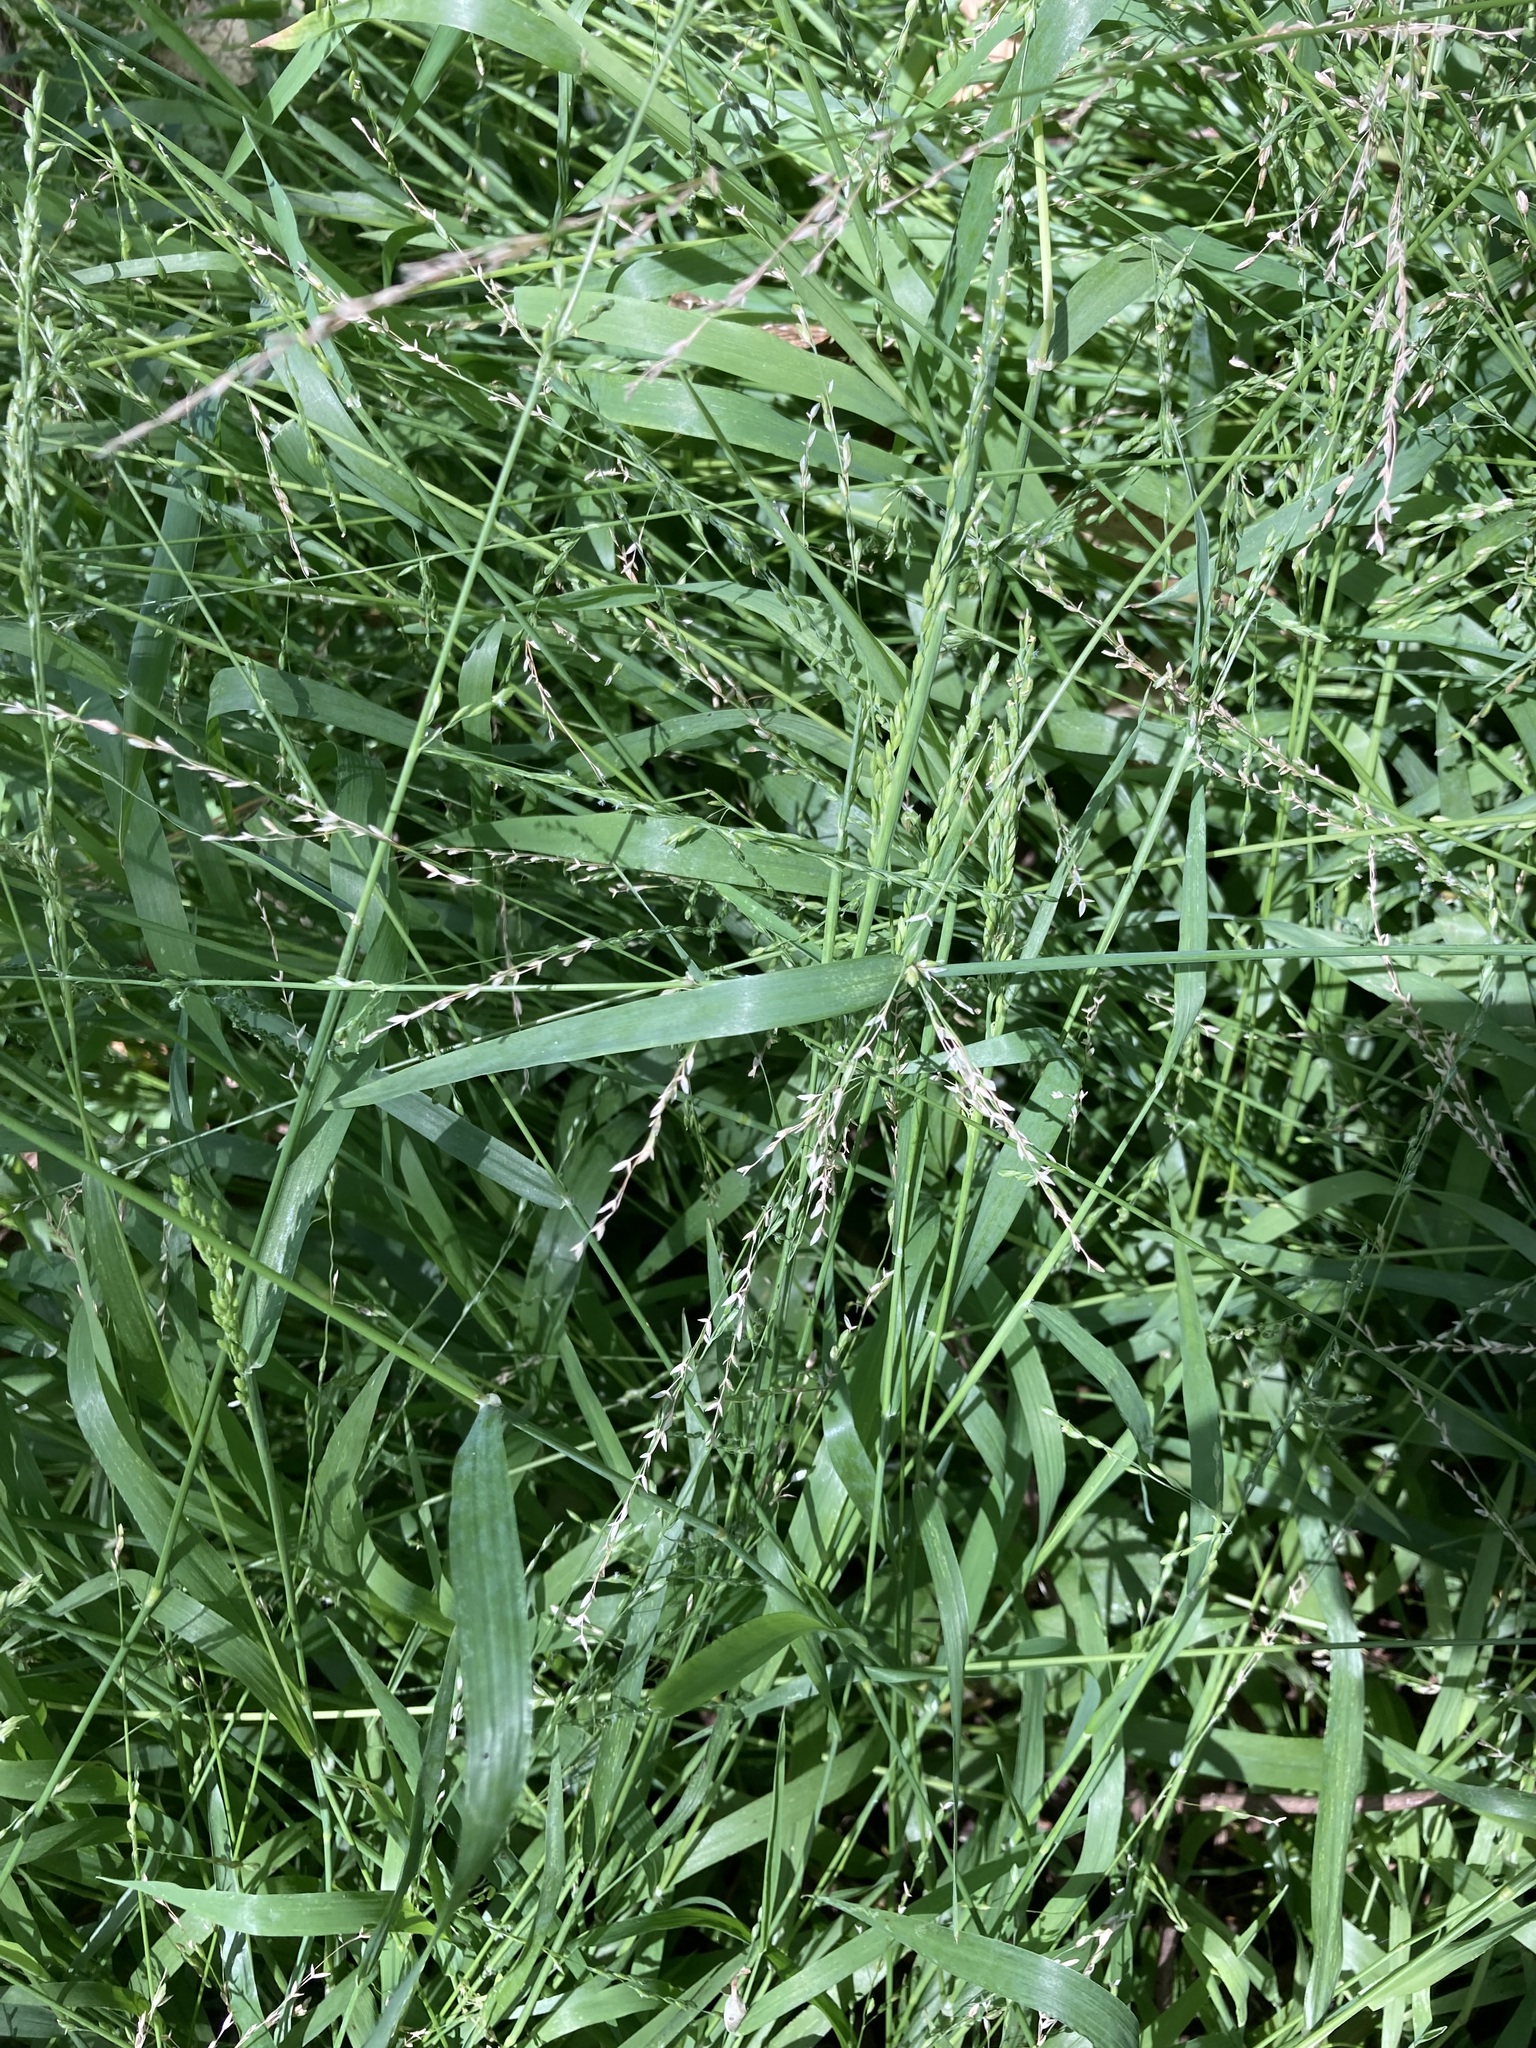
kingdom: Plantae
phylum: Tracheophyta
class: Liliopsida
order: Poales
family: Poaceae
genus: Ehrharta
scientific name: Ehrharta erecta
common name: Panic veldtgrass
